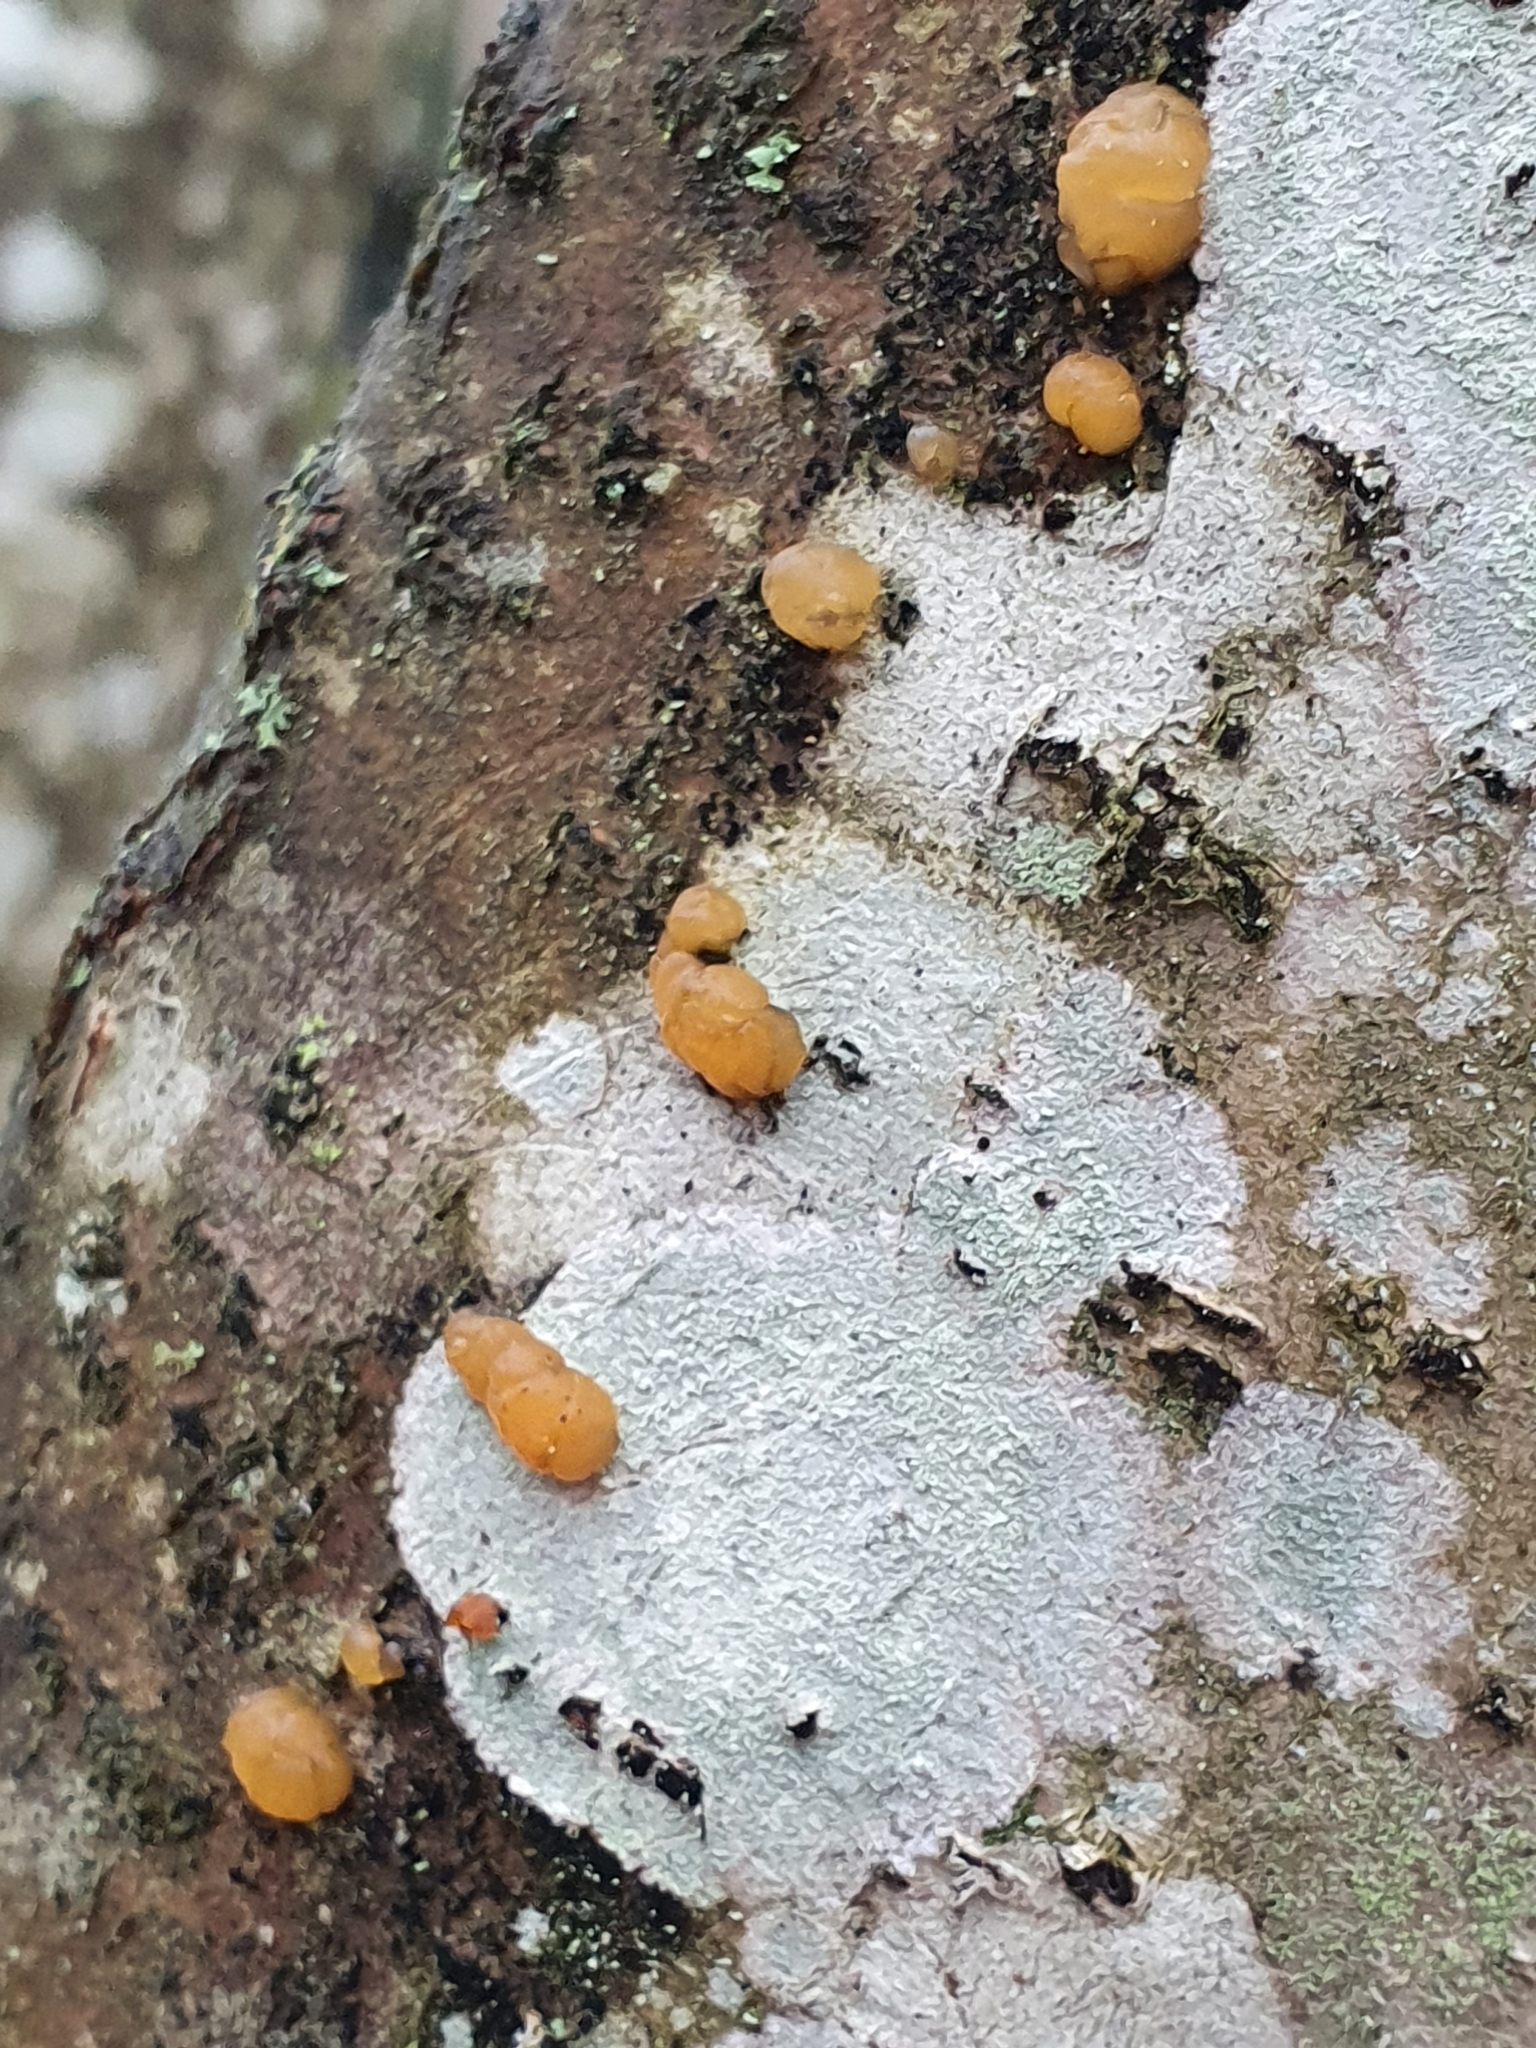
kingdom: Fungi
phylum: Ascomycota
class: Lecanoromycetes
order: Ostropales
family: Phlyctidaceae
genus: Phlyctis
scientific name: Phlyctis argena
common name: Whitewash lichen
